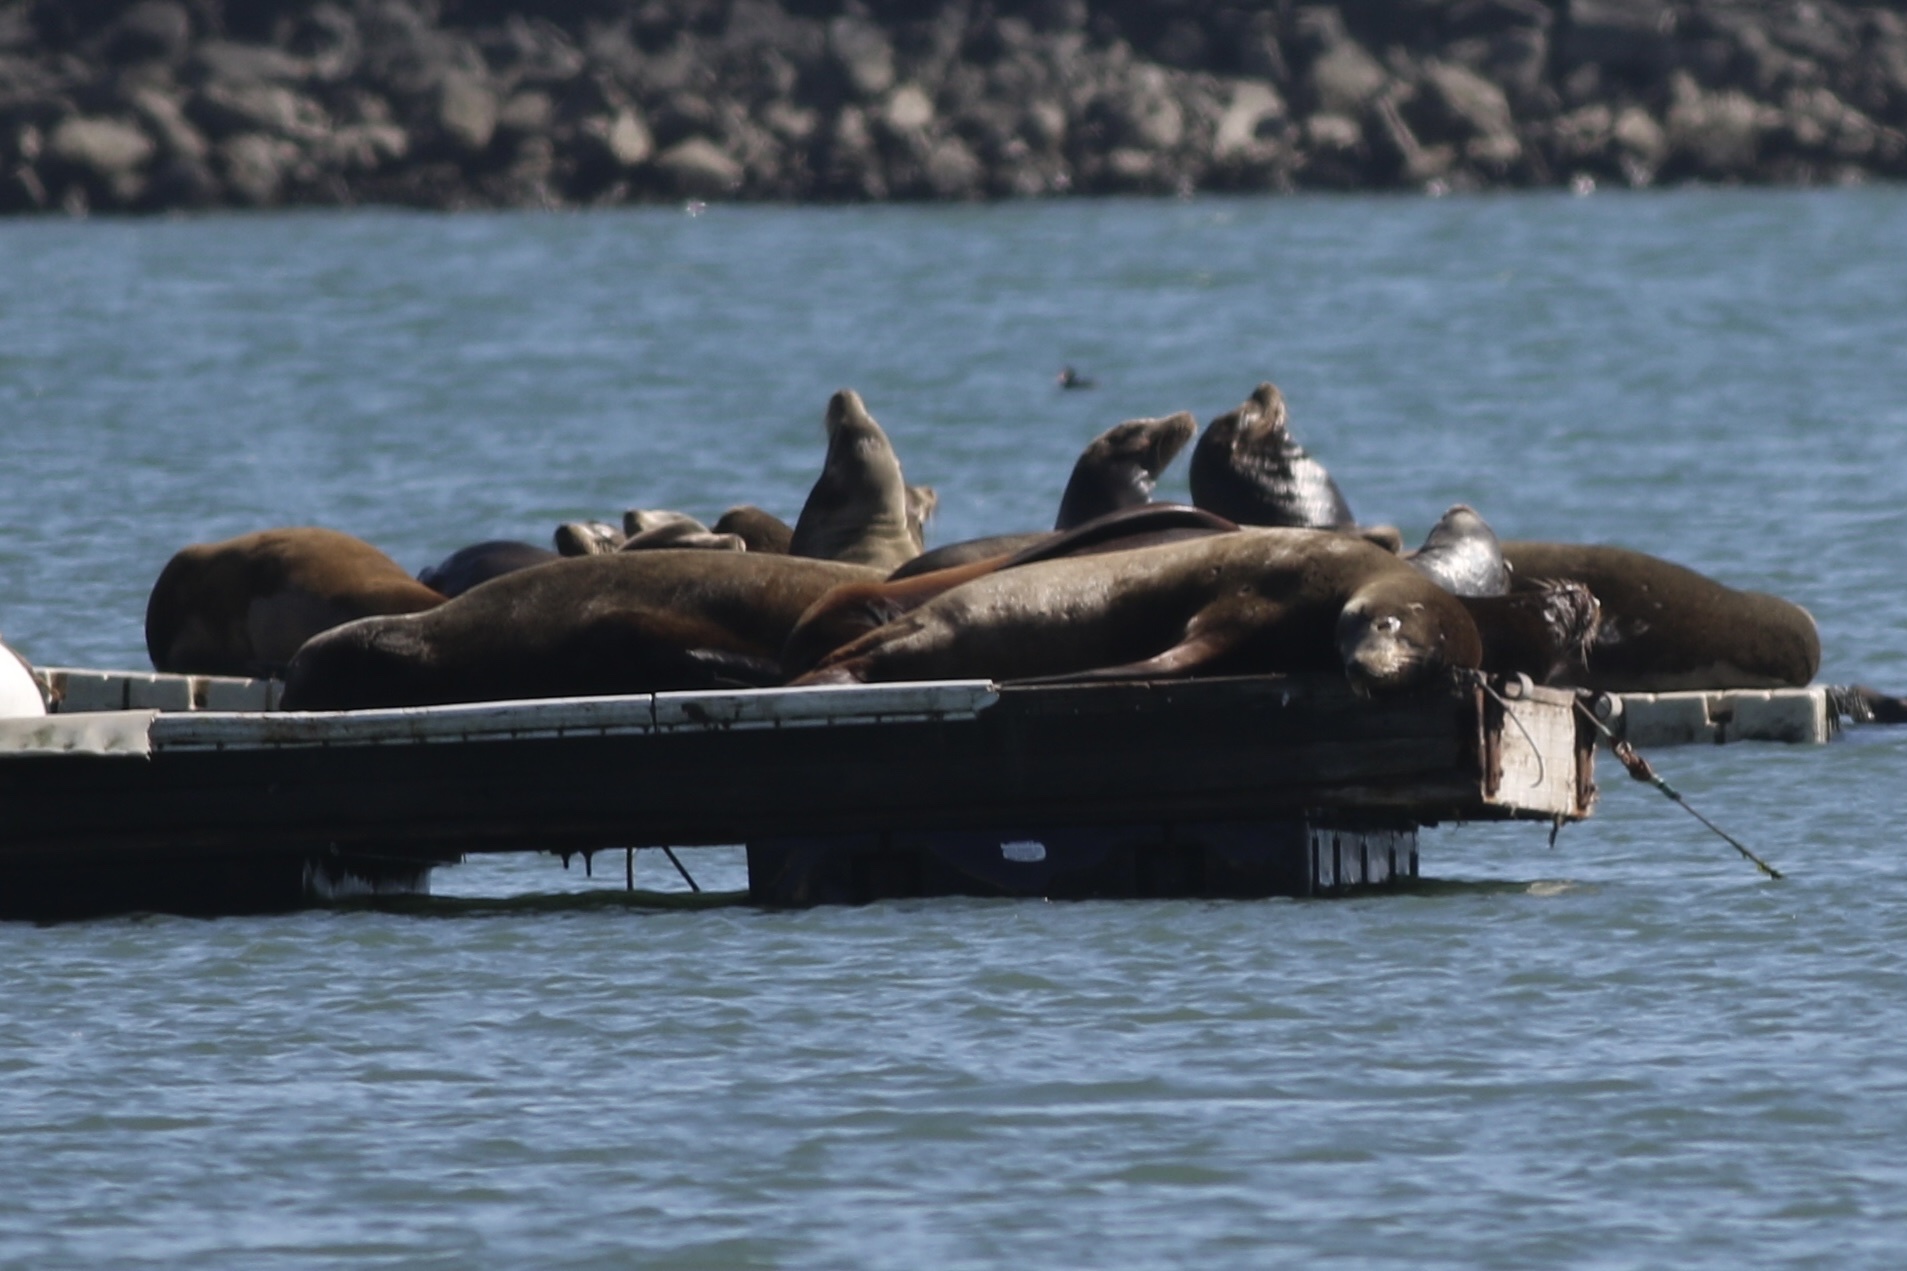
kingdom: Animalia
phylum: Chordata
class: Mammalia
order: Carnivora
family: Otariidae
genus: Zalophus
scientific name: Zalophus californianus
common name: California sea lion
